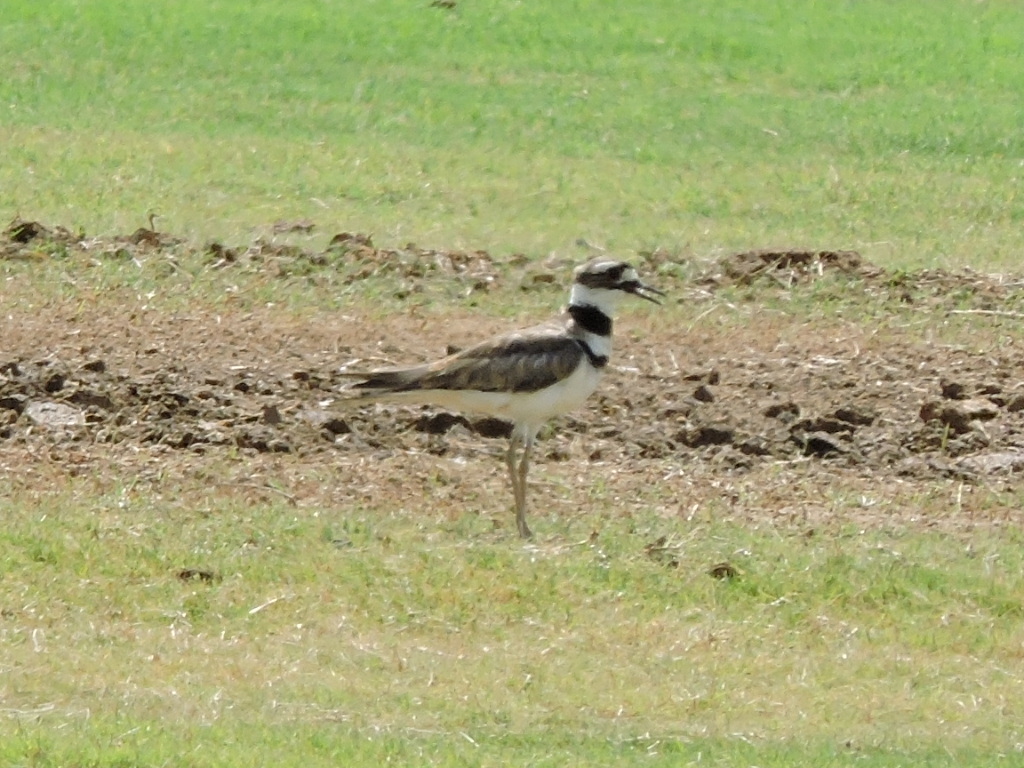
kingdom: Animalia
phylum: Chordata
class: Aves
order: Charadriiformes
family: Charadriidae
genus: Charadrius
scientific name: Charadrius vociferus
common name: Killdeer
